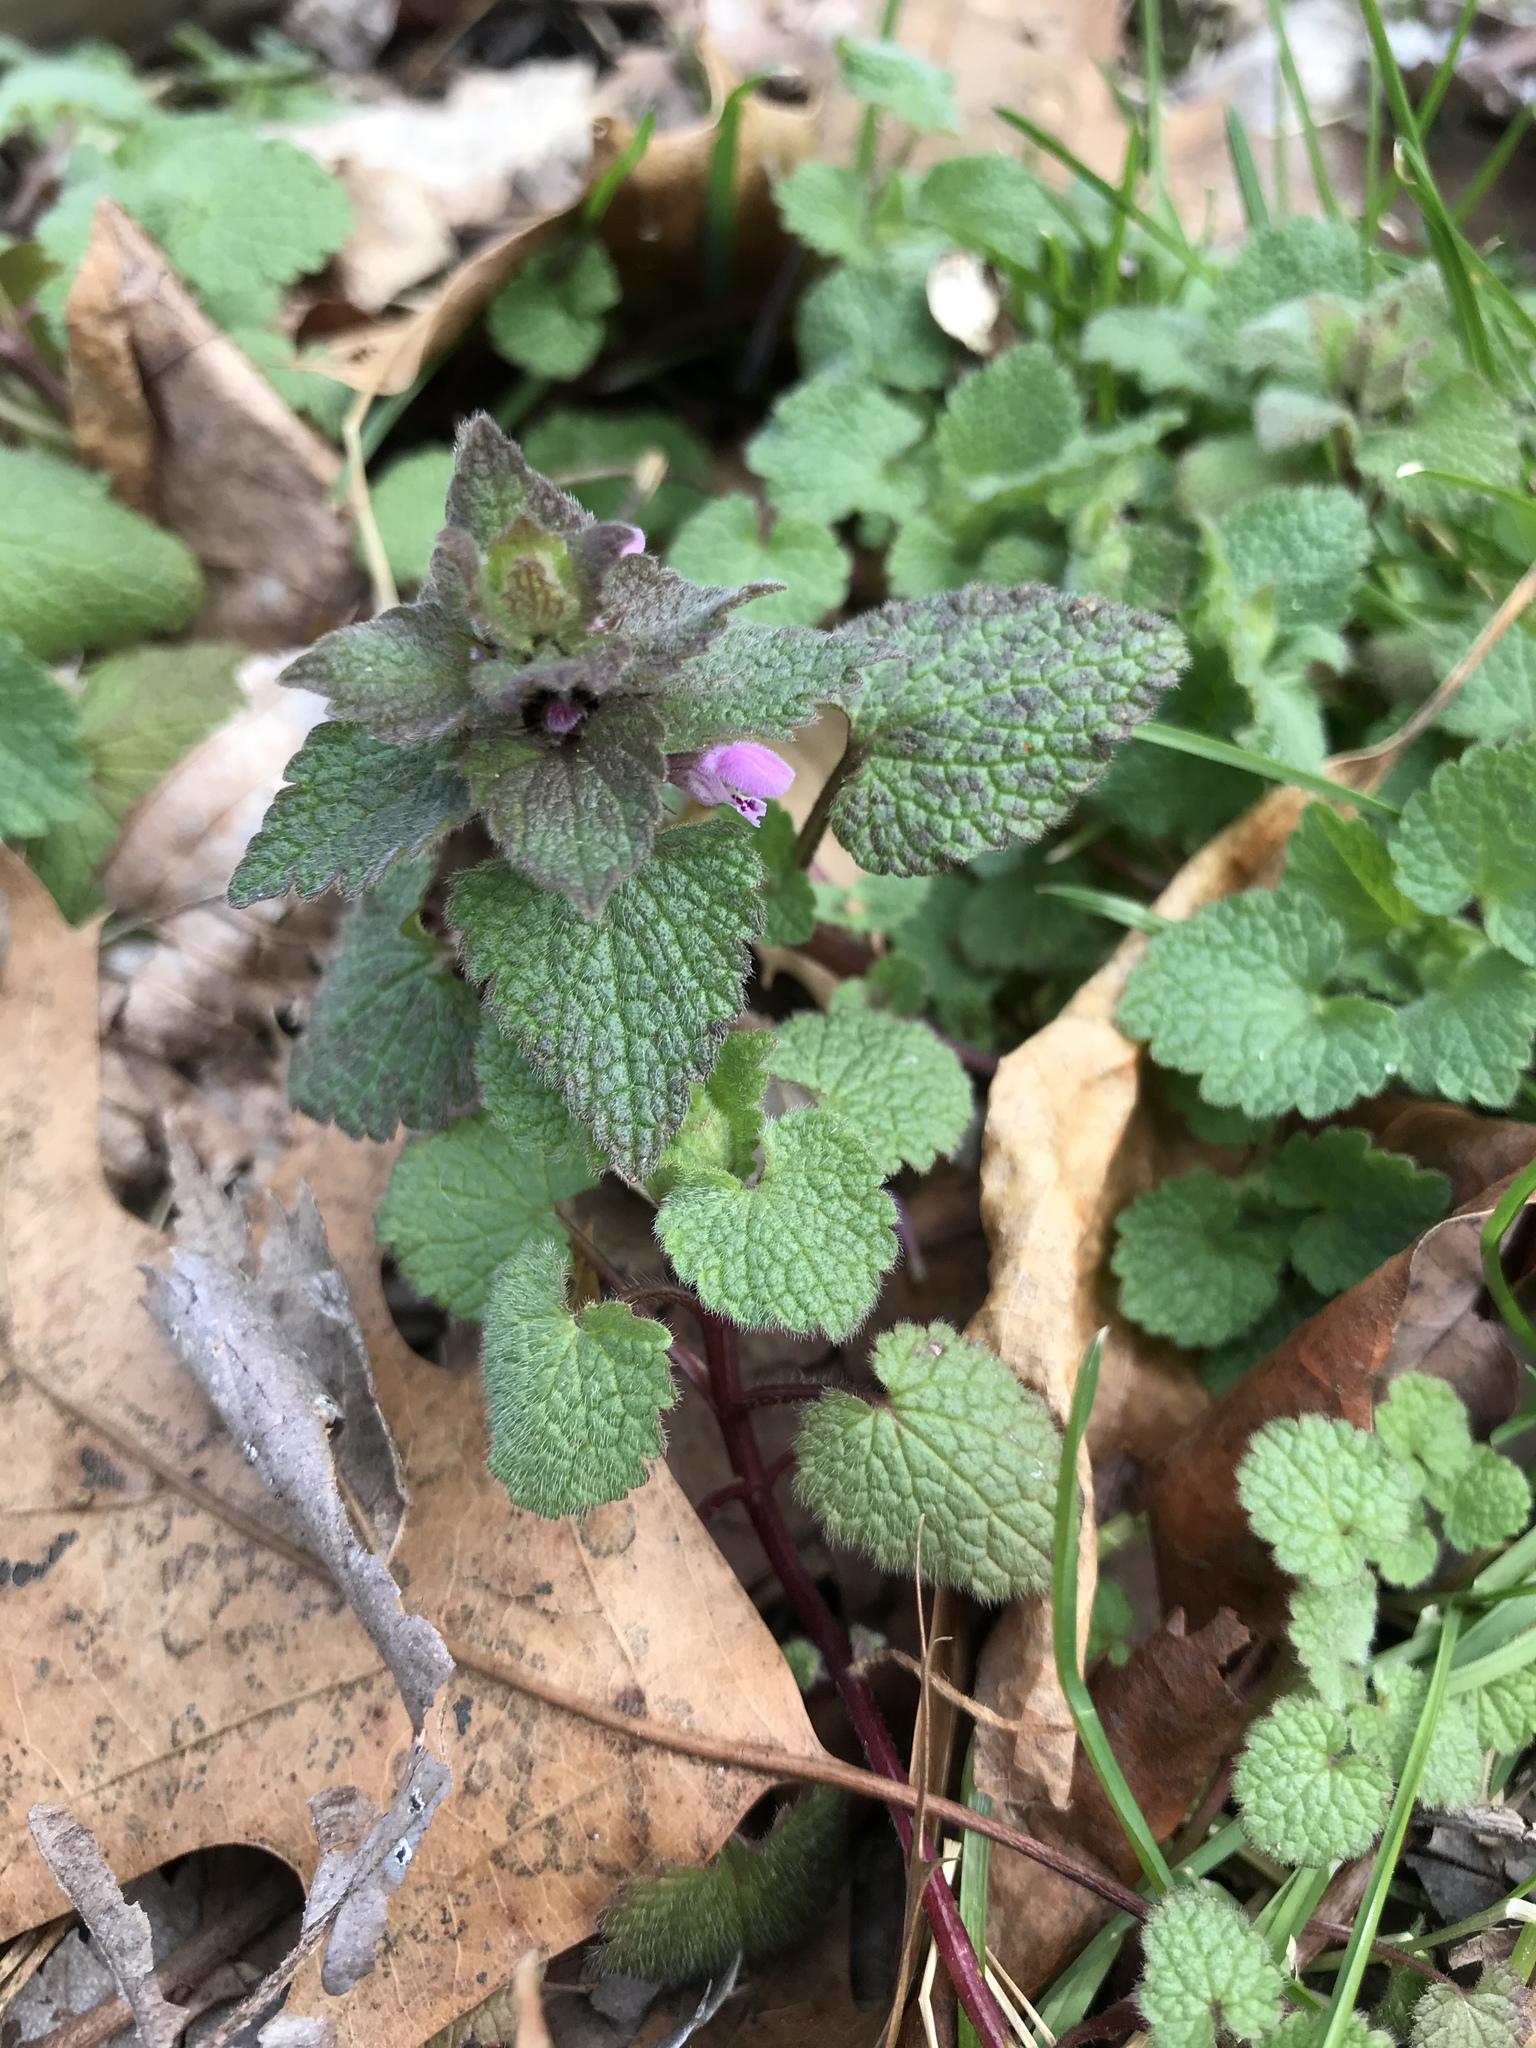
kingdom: Plantae
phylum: Tracheophyta
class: Magnoliopsida
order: Lamiales
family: Lamiaceae
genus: Lamium
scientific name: Lamium purpureum
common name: Red dead-nettle
